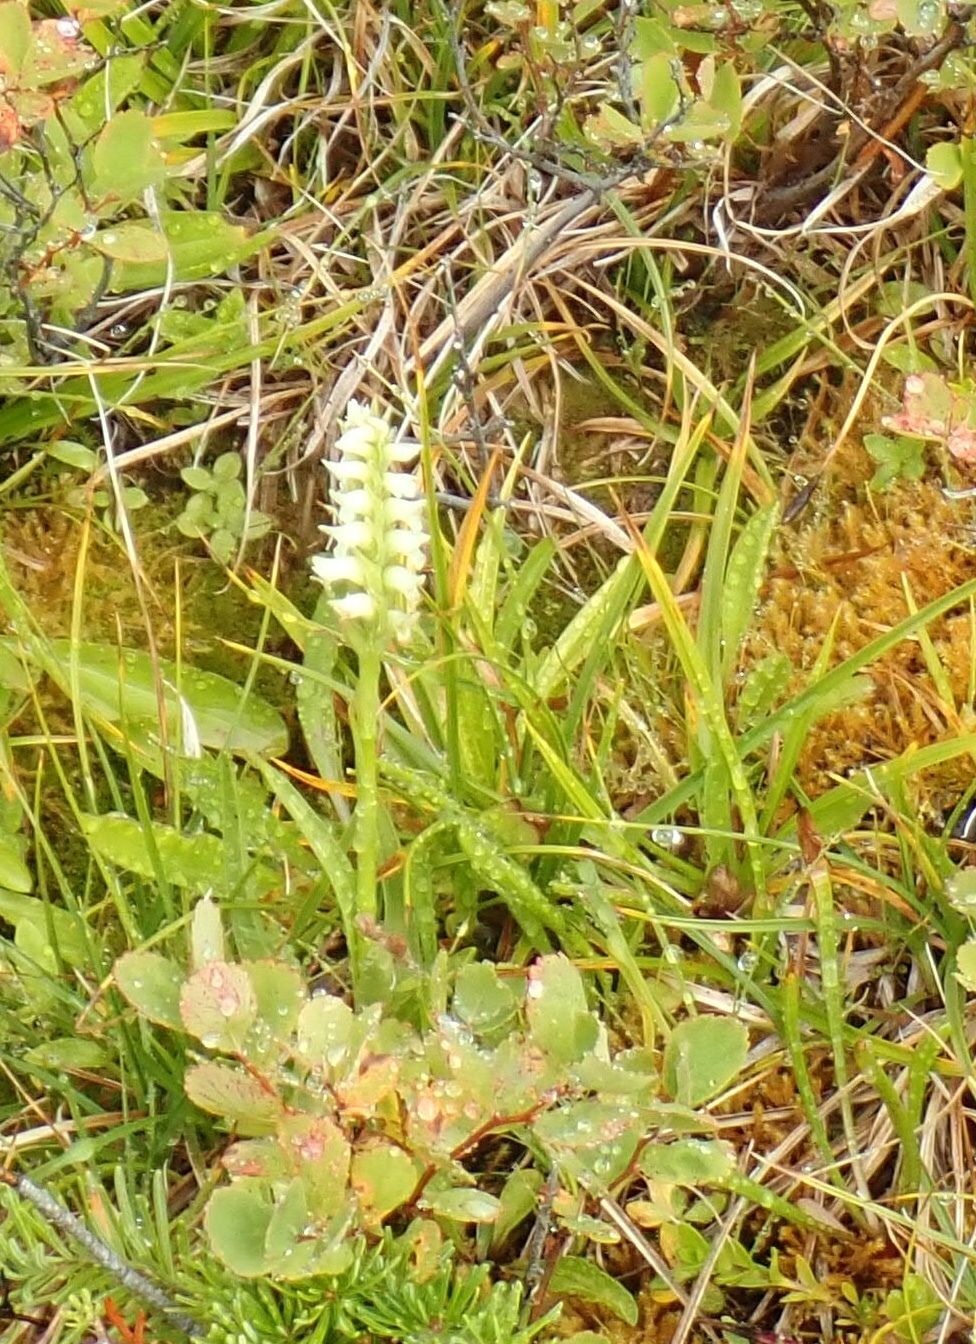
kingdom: Plantae
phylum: Tracheophyta
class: Liliopsida
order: Asparagales
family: Orchidaceae
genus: Spiranthes
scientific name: Spiranthes romanzoffiana
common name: Irish lady's-tresses
